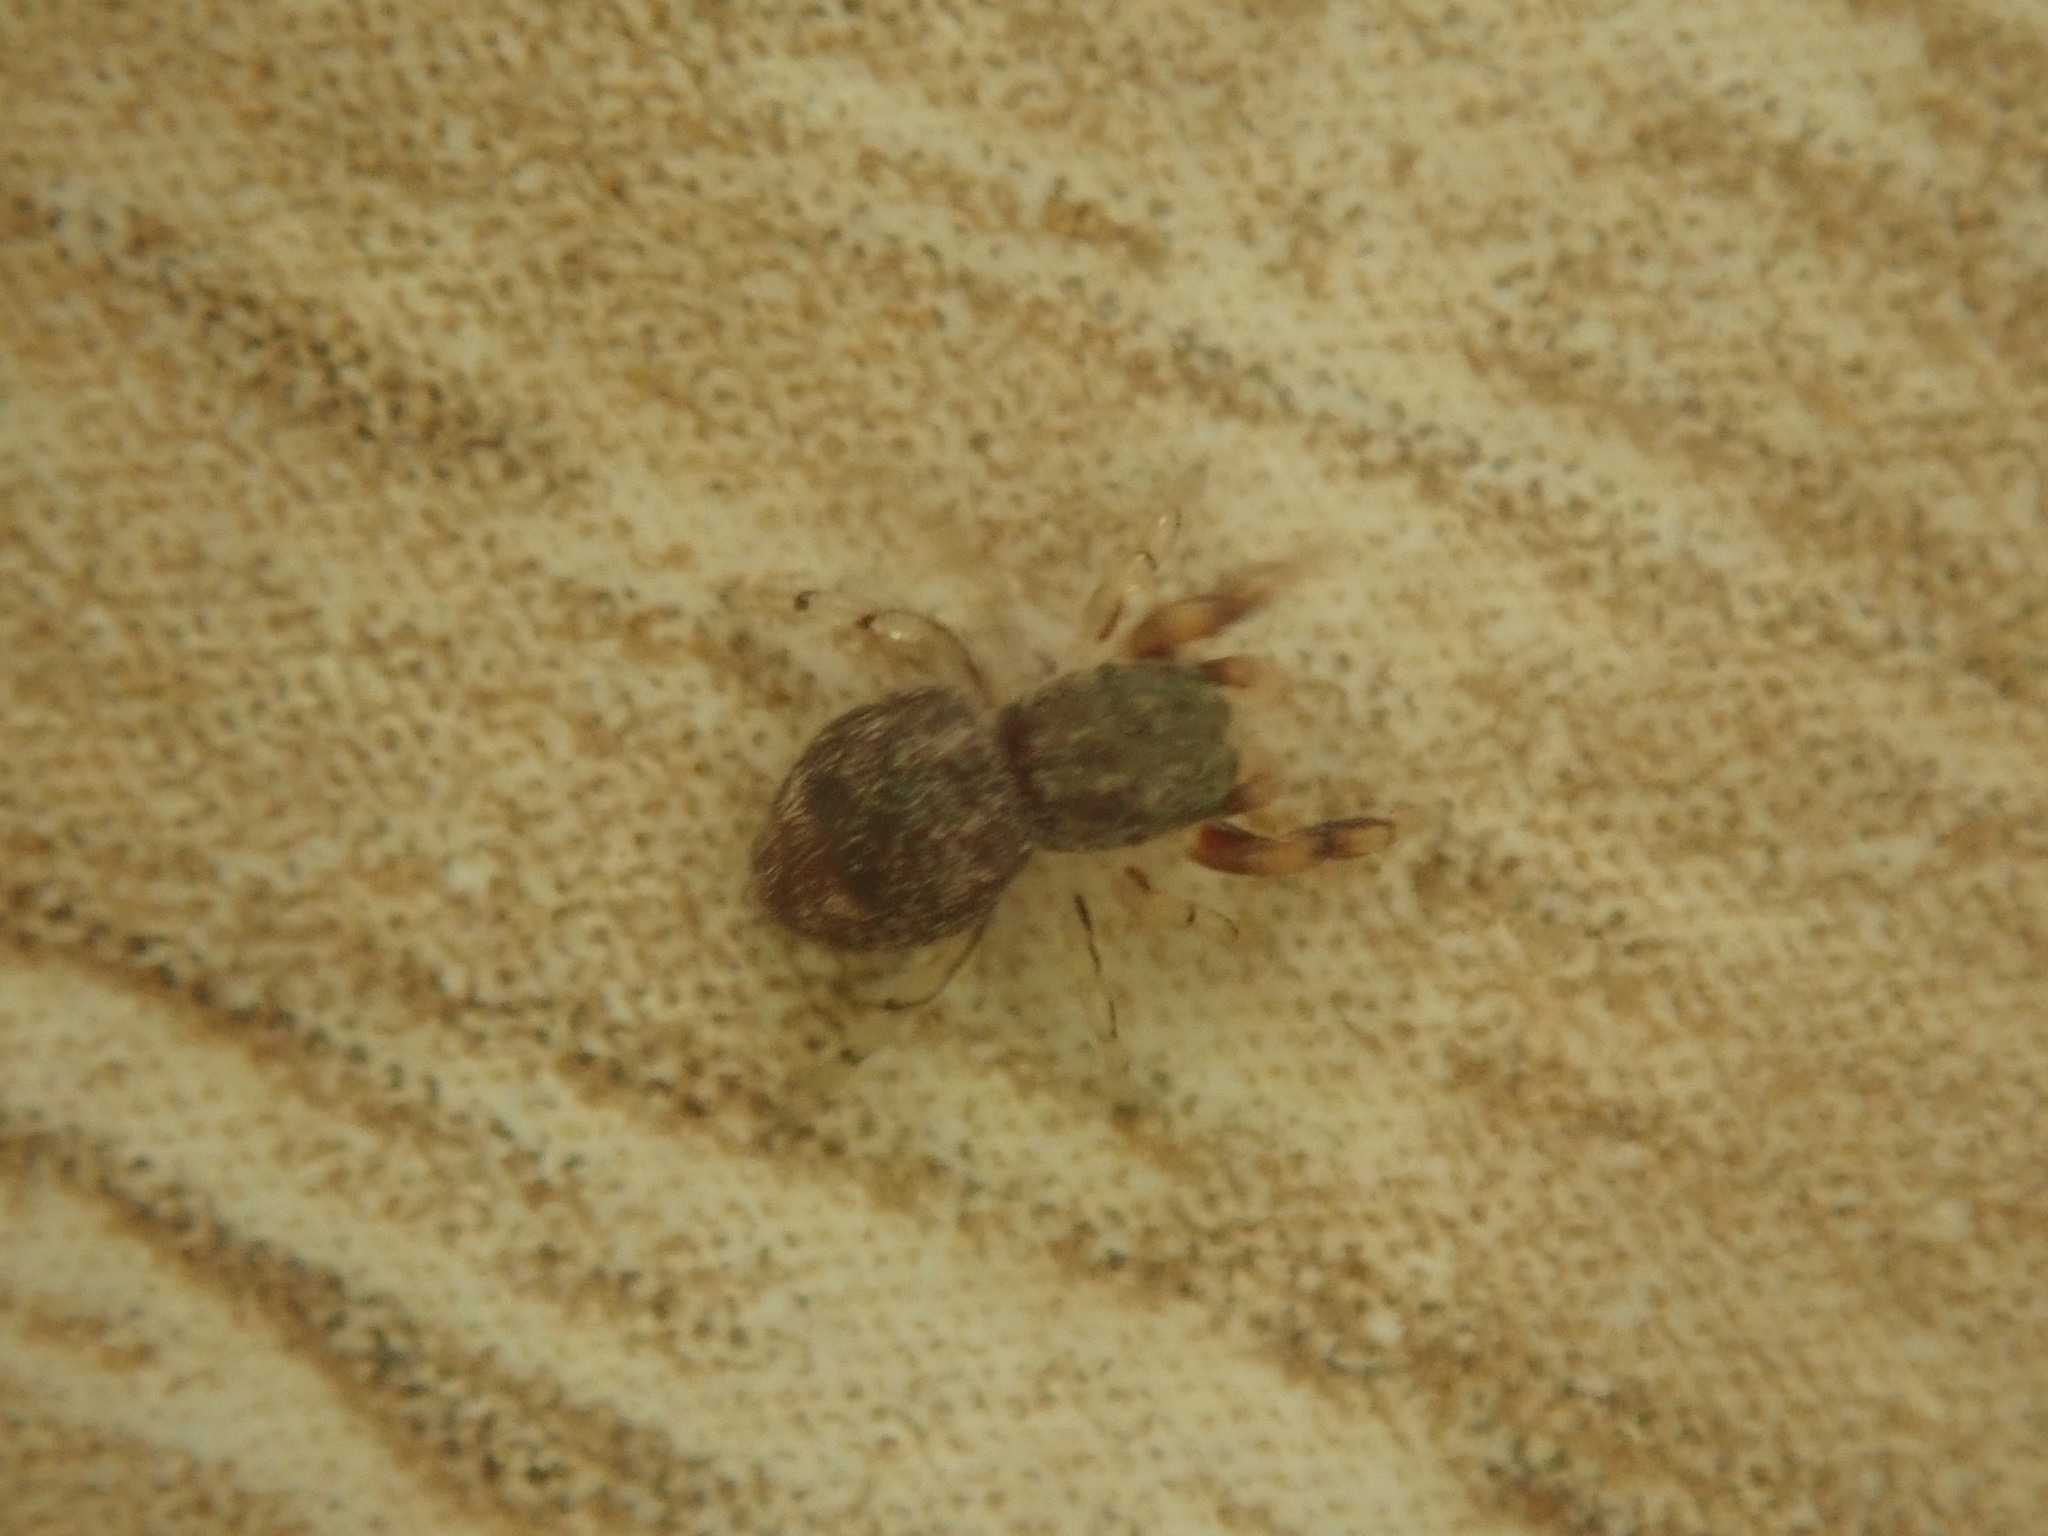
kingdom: Animalia
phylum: Arthropoda
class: Arachnida
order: Araneae
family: Salticidae
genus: Ballus
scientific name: Ballus chalybeius
